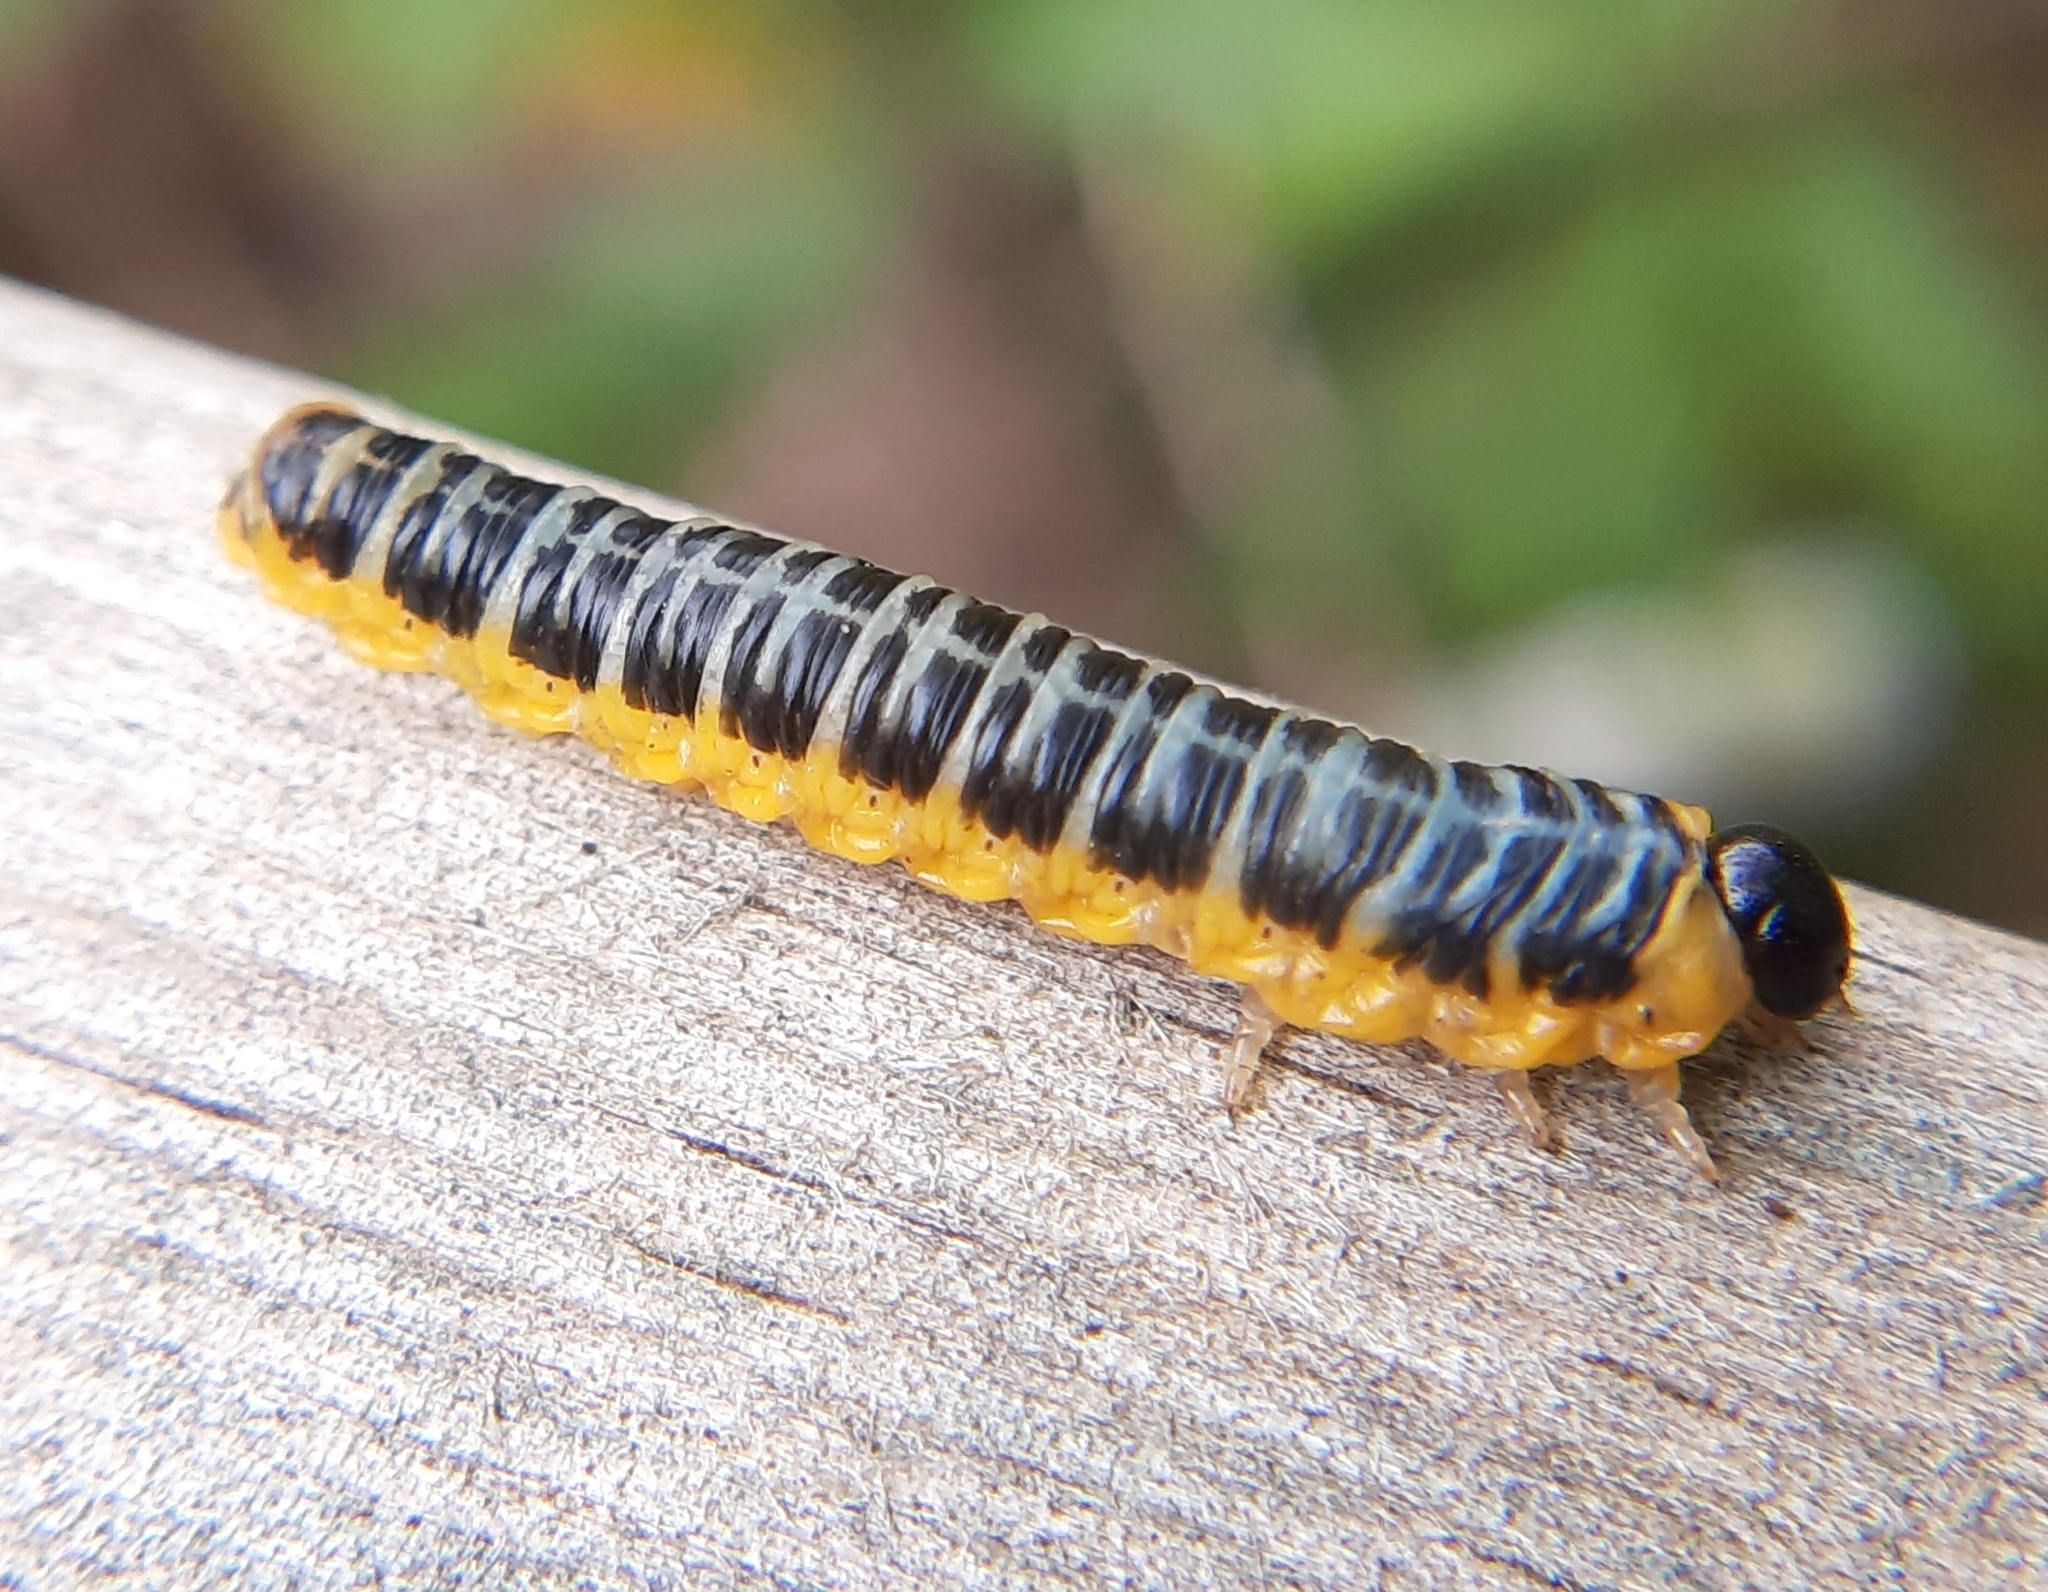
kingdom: Animalia
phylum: Arthropoda
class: Insecta
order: Hymenoptera
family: Tenthredinidae
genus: Macremphytus
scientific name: Macremphytus
